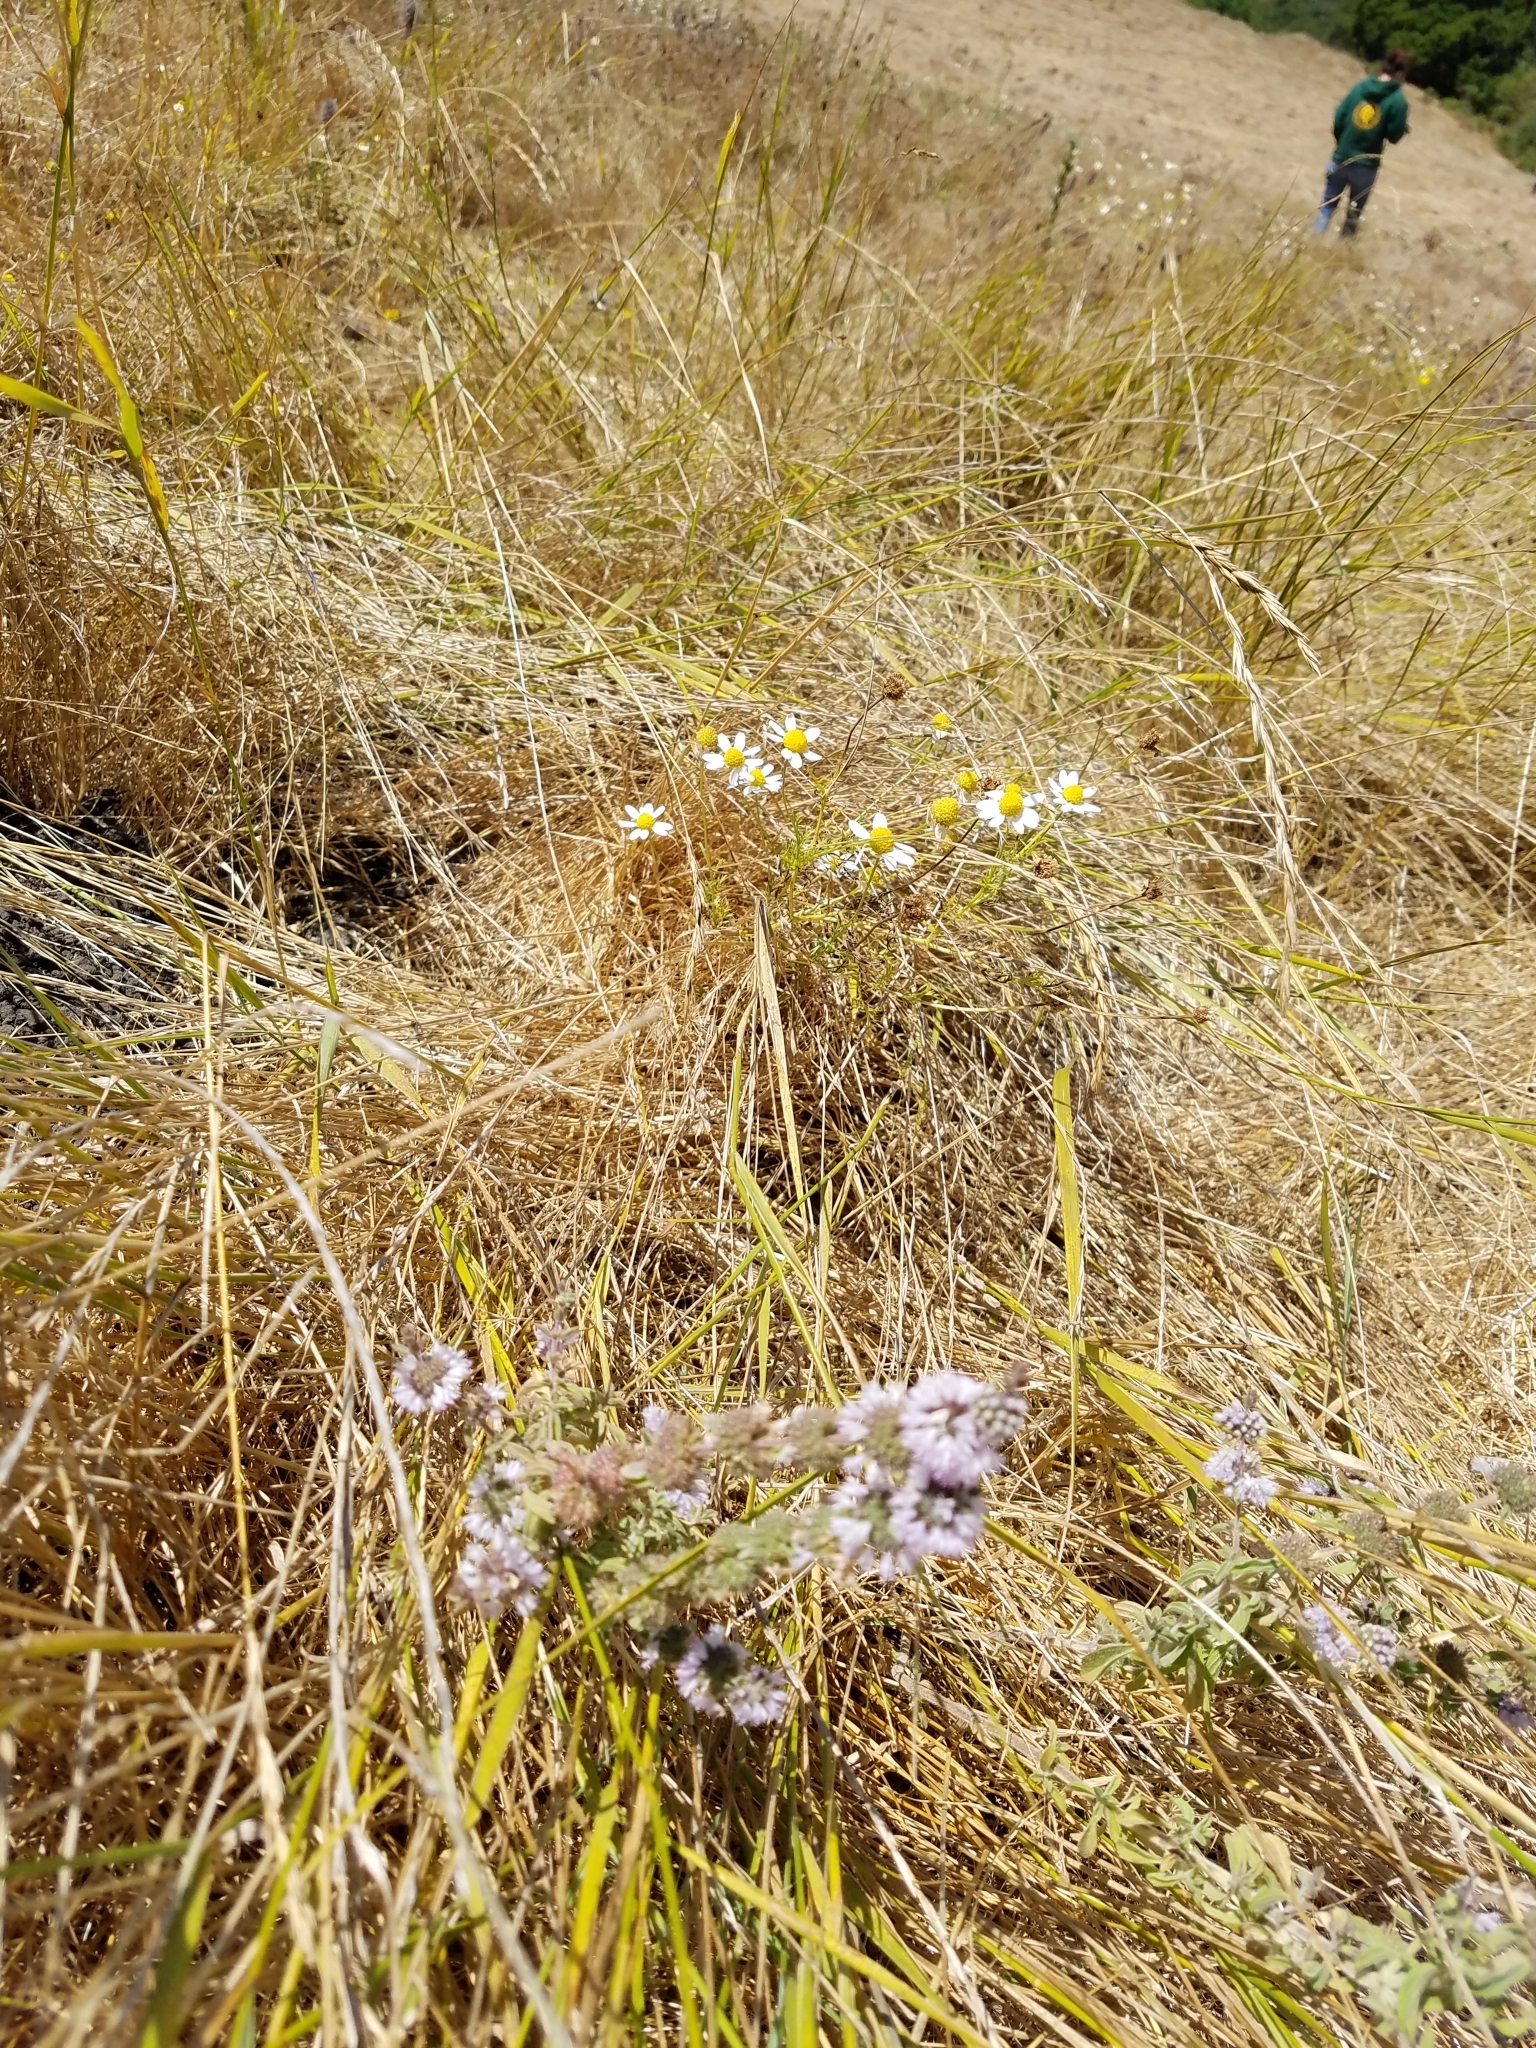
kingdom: Plantae
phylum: Tracheophyta
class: Magnoliopsida
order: Lamiales
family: Lamiaceae
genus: Mentha
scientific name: Mentha pulegium
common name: Pennyroyal
